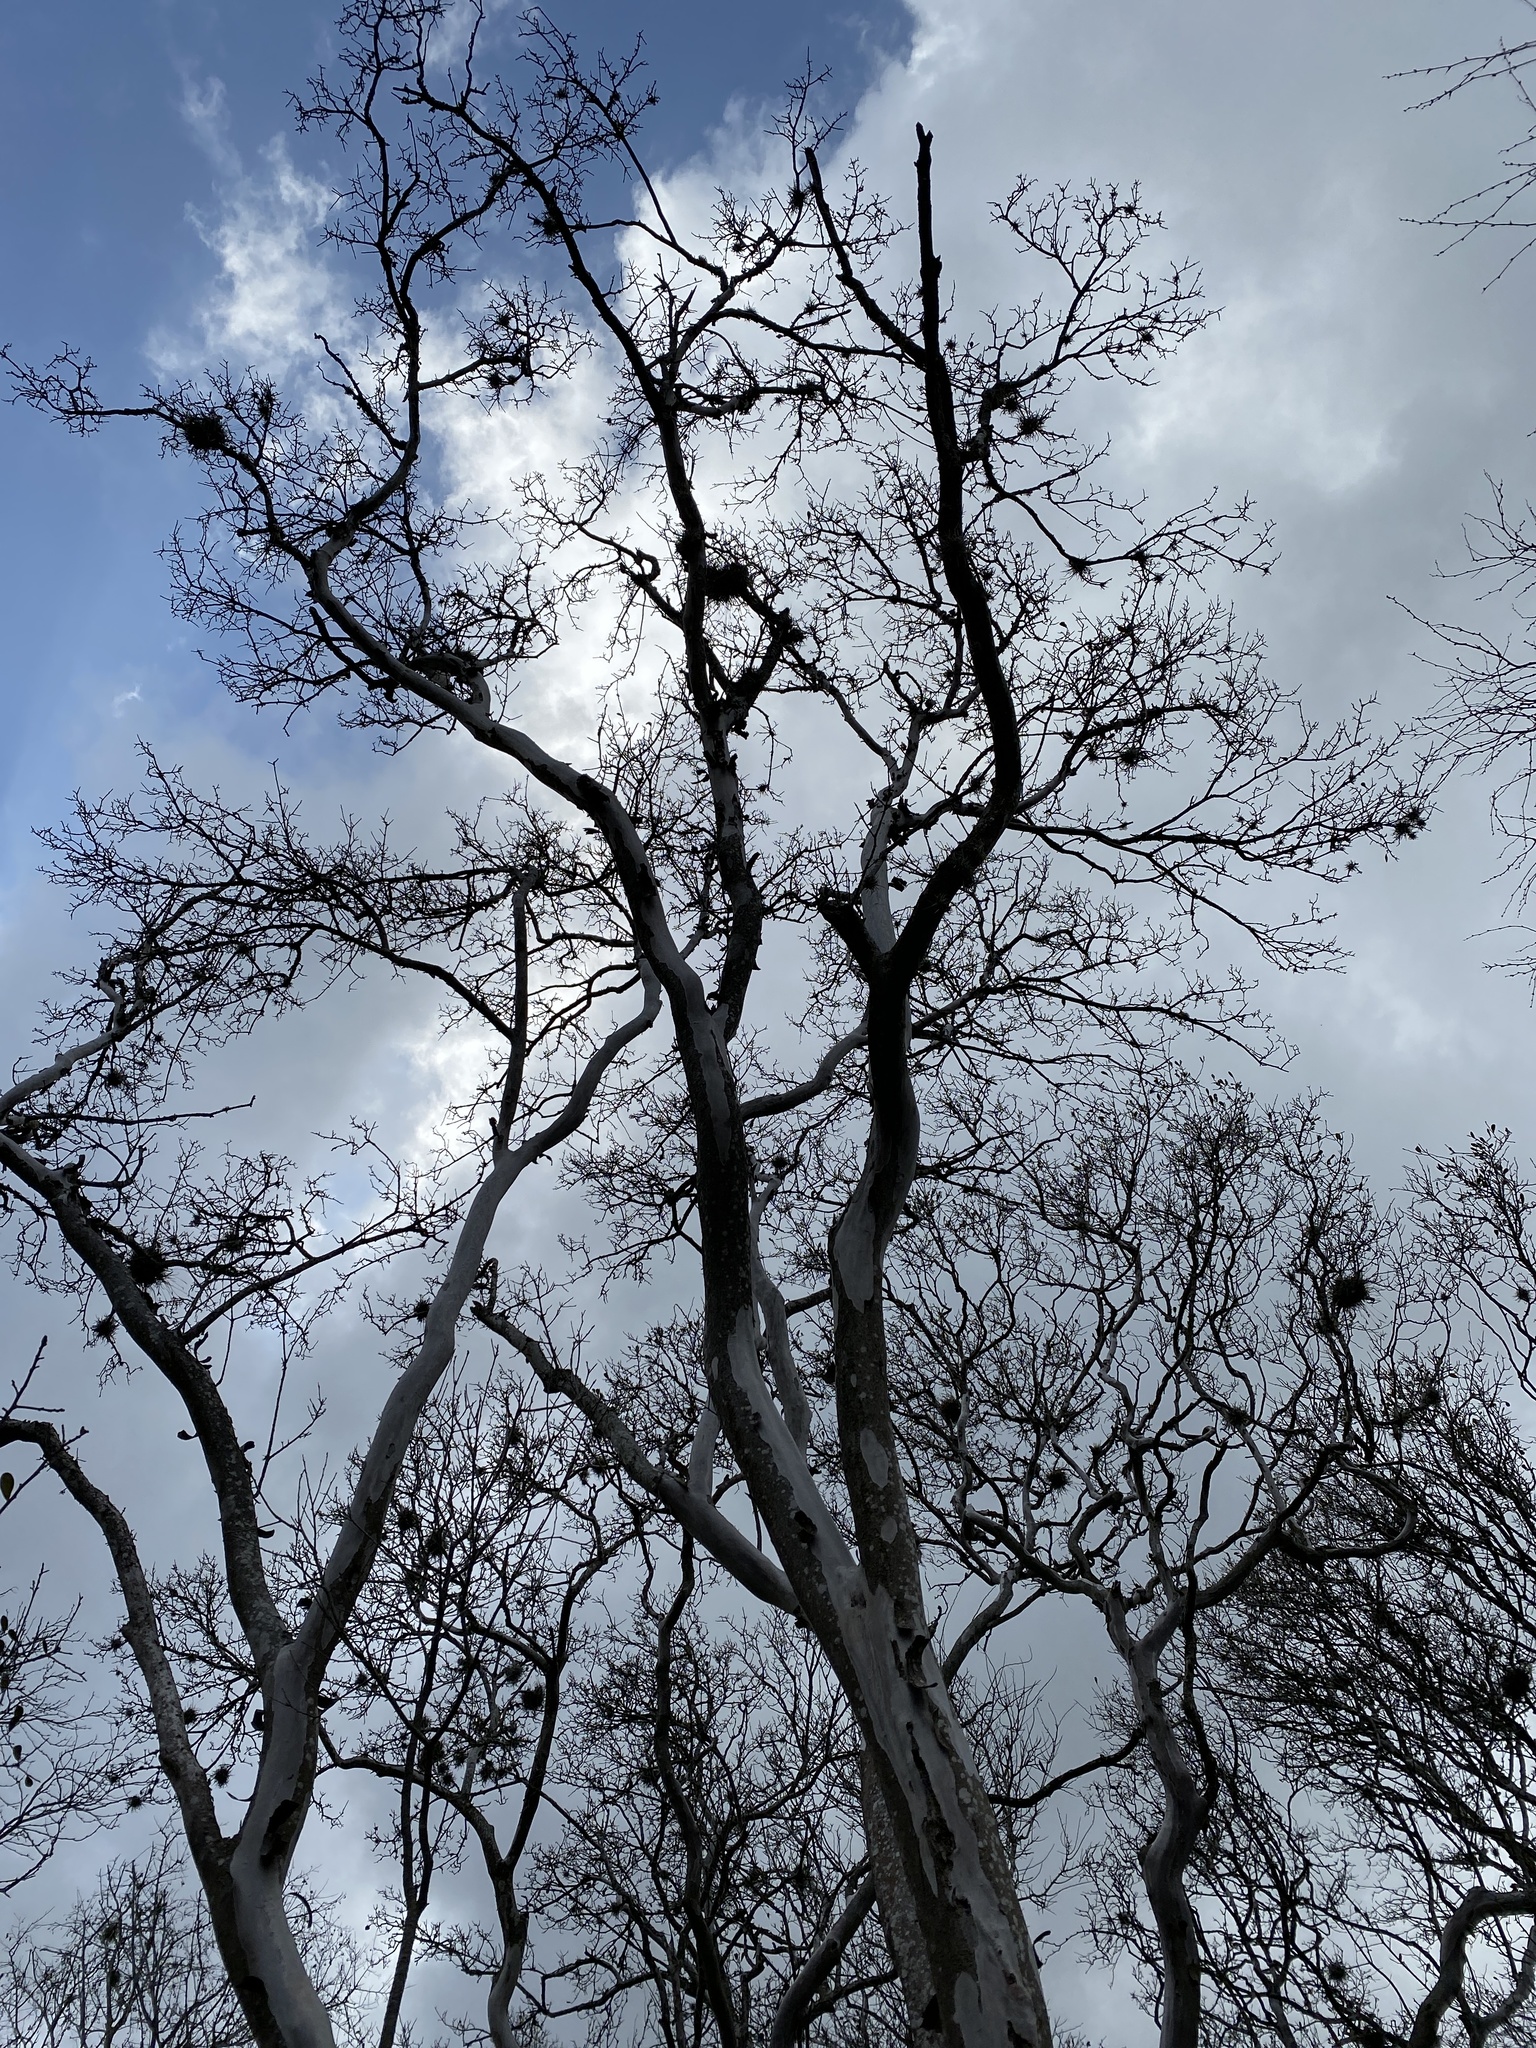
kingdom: Plantae
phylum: Tracheophyta
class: Magnoliopsida
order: Ericales
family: Ebenaceae
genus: Diospyros
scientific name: Diospyros texana
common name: Texas persimmon
